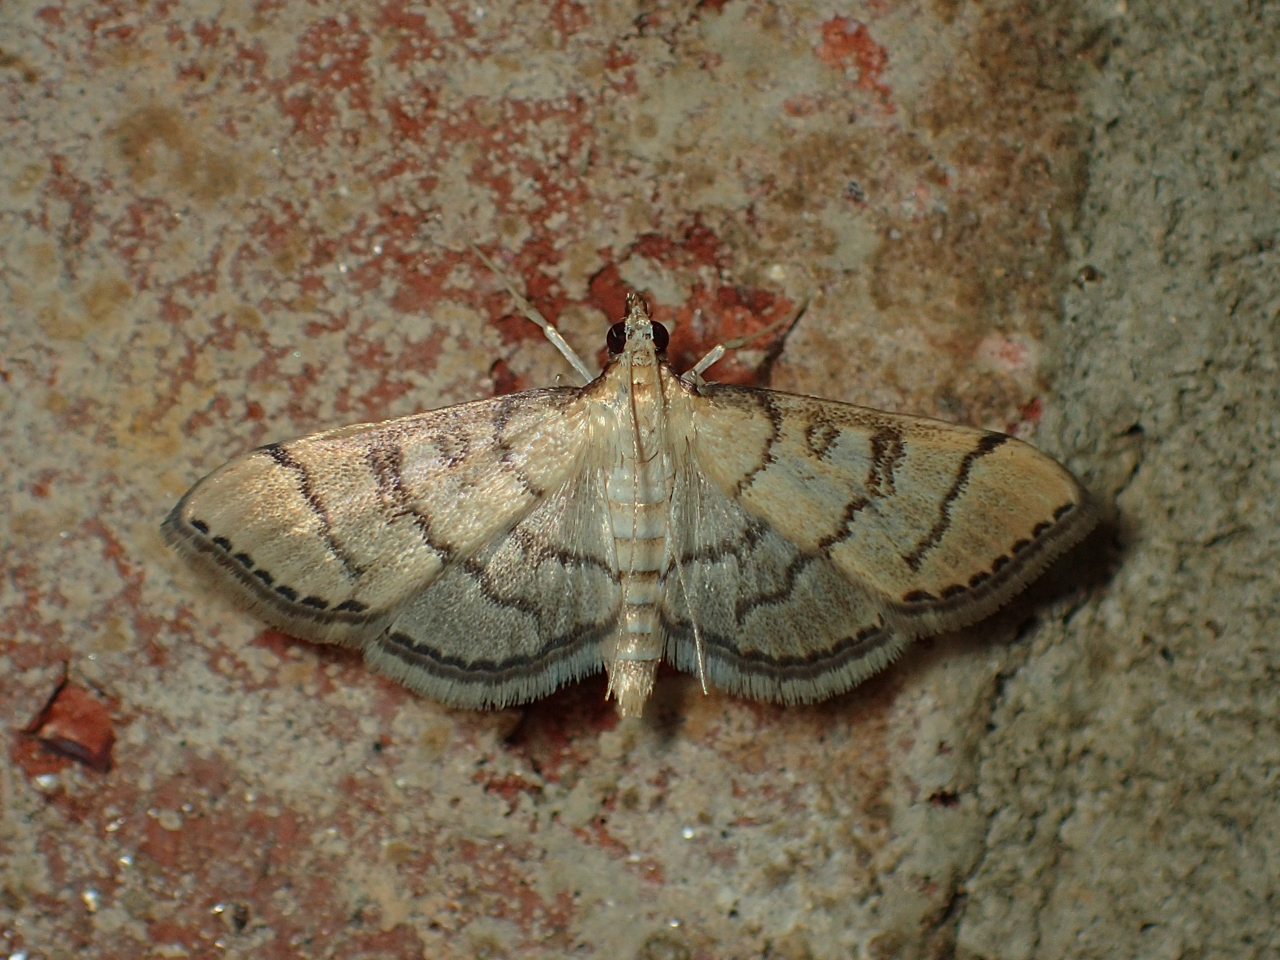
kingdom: Animalia
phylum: Arthropoda
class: Insecta
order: Lepidoptera
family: Crambidae
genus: Lamprosema
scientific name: Lamprosema Blepharomastix ranalis
